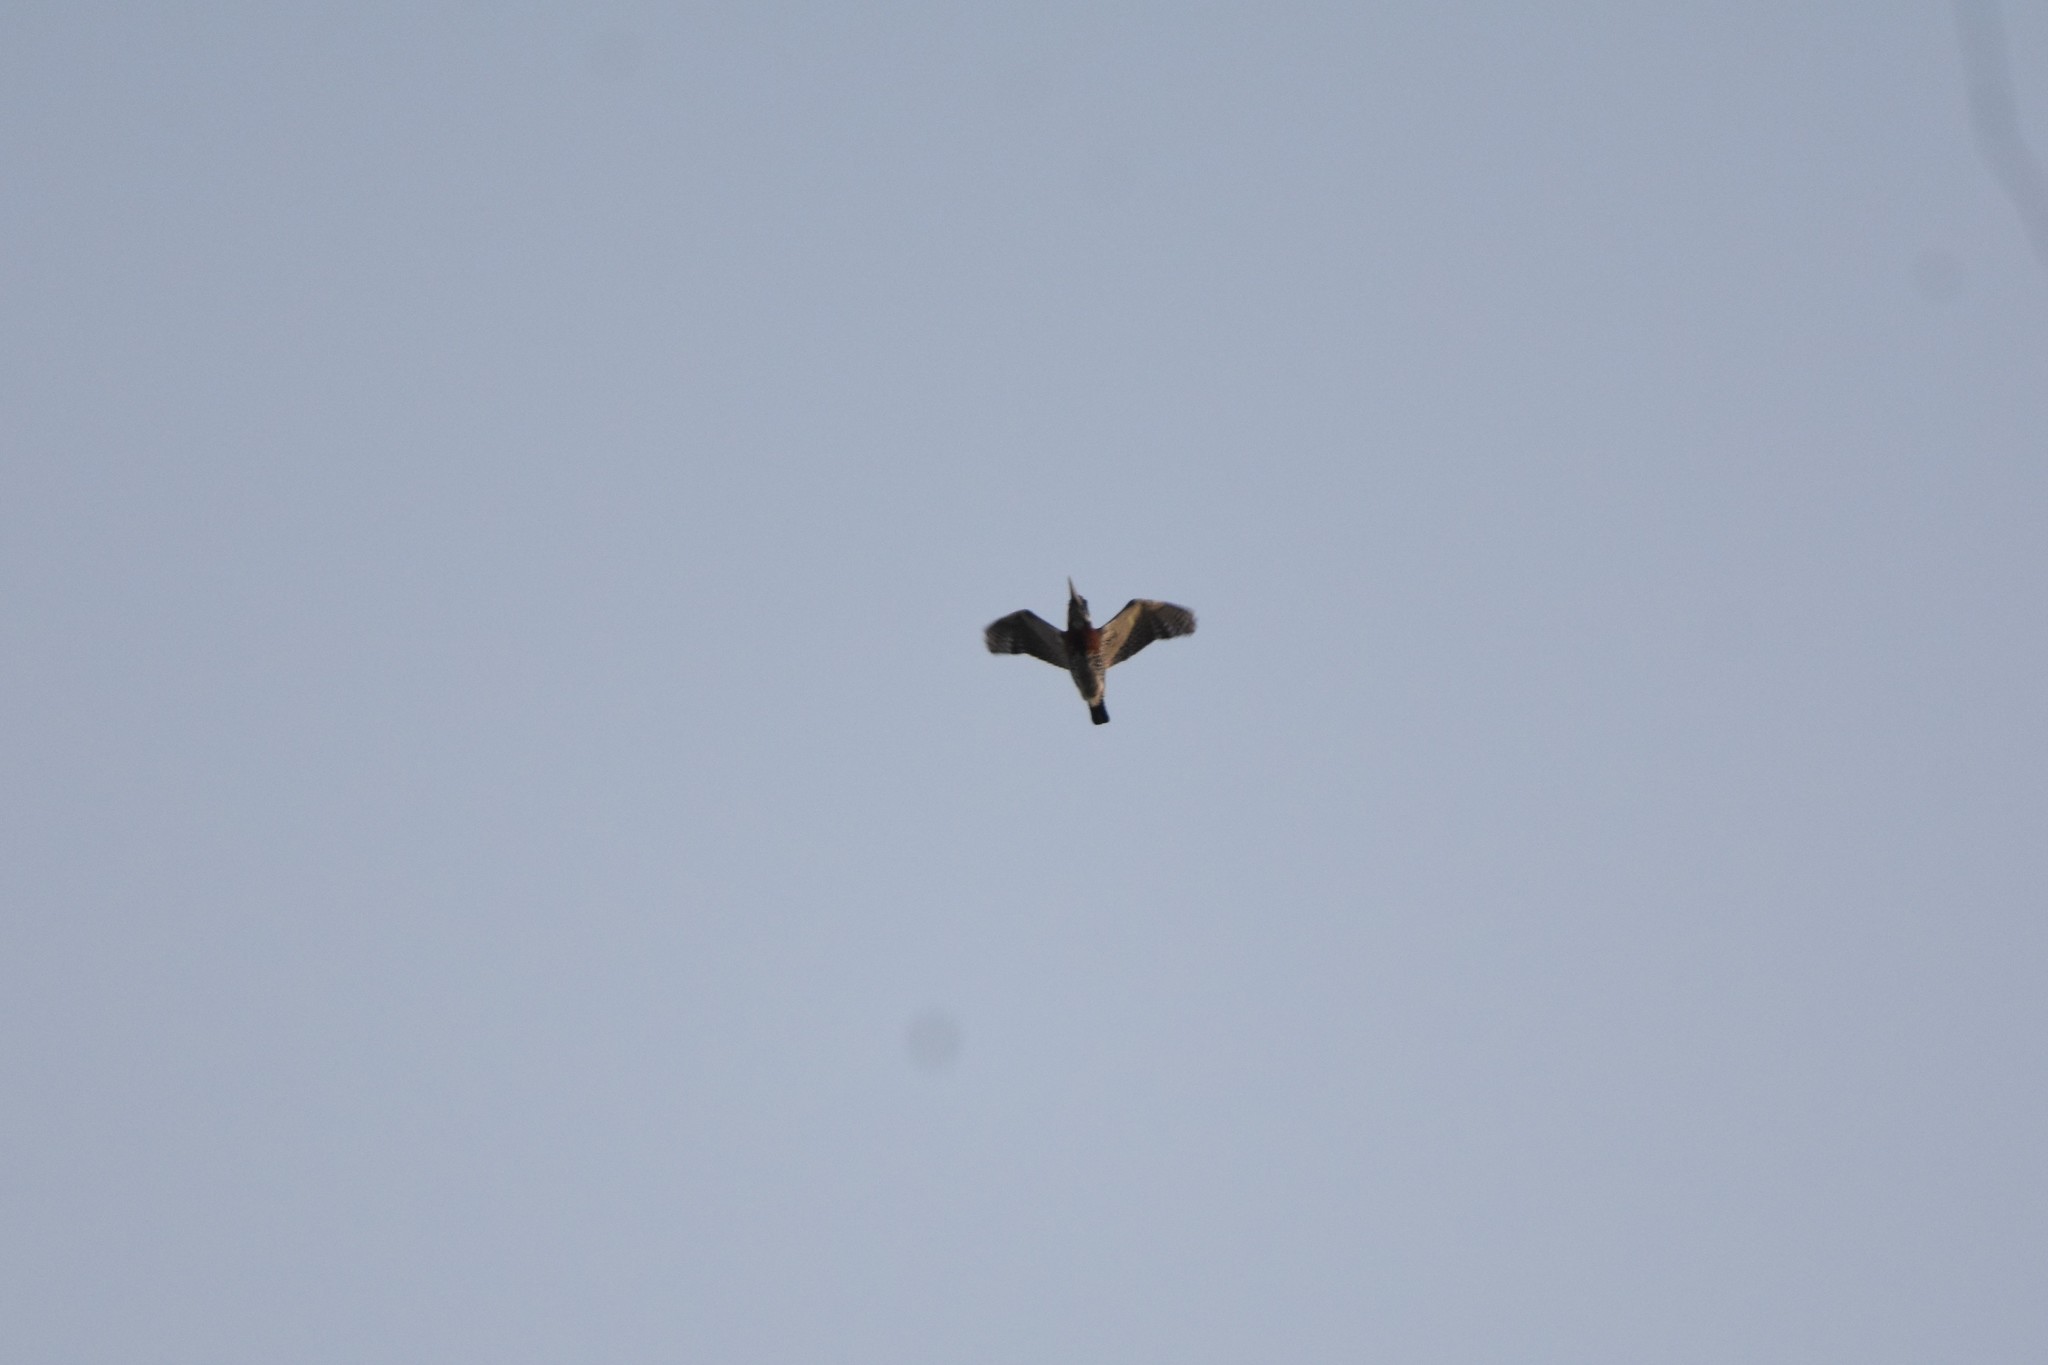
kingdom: Animalia
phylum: Chordata
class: Aves
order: Coraciiformes
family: Alcedinidae
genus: Megaceryle
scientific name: Megaceryle maxima
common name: Giant kingfisher
